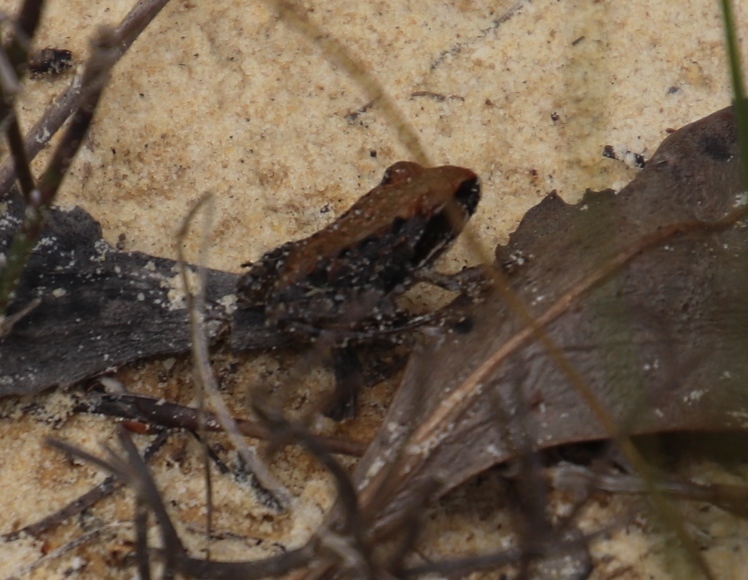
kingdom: Animalia
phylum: Chordata
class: Amphibia
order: Anura
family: Pyxicephalidae
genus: Strongylopus
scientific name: Strongylopus grayii
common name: Gray's stream frog
